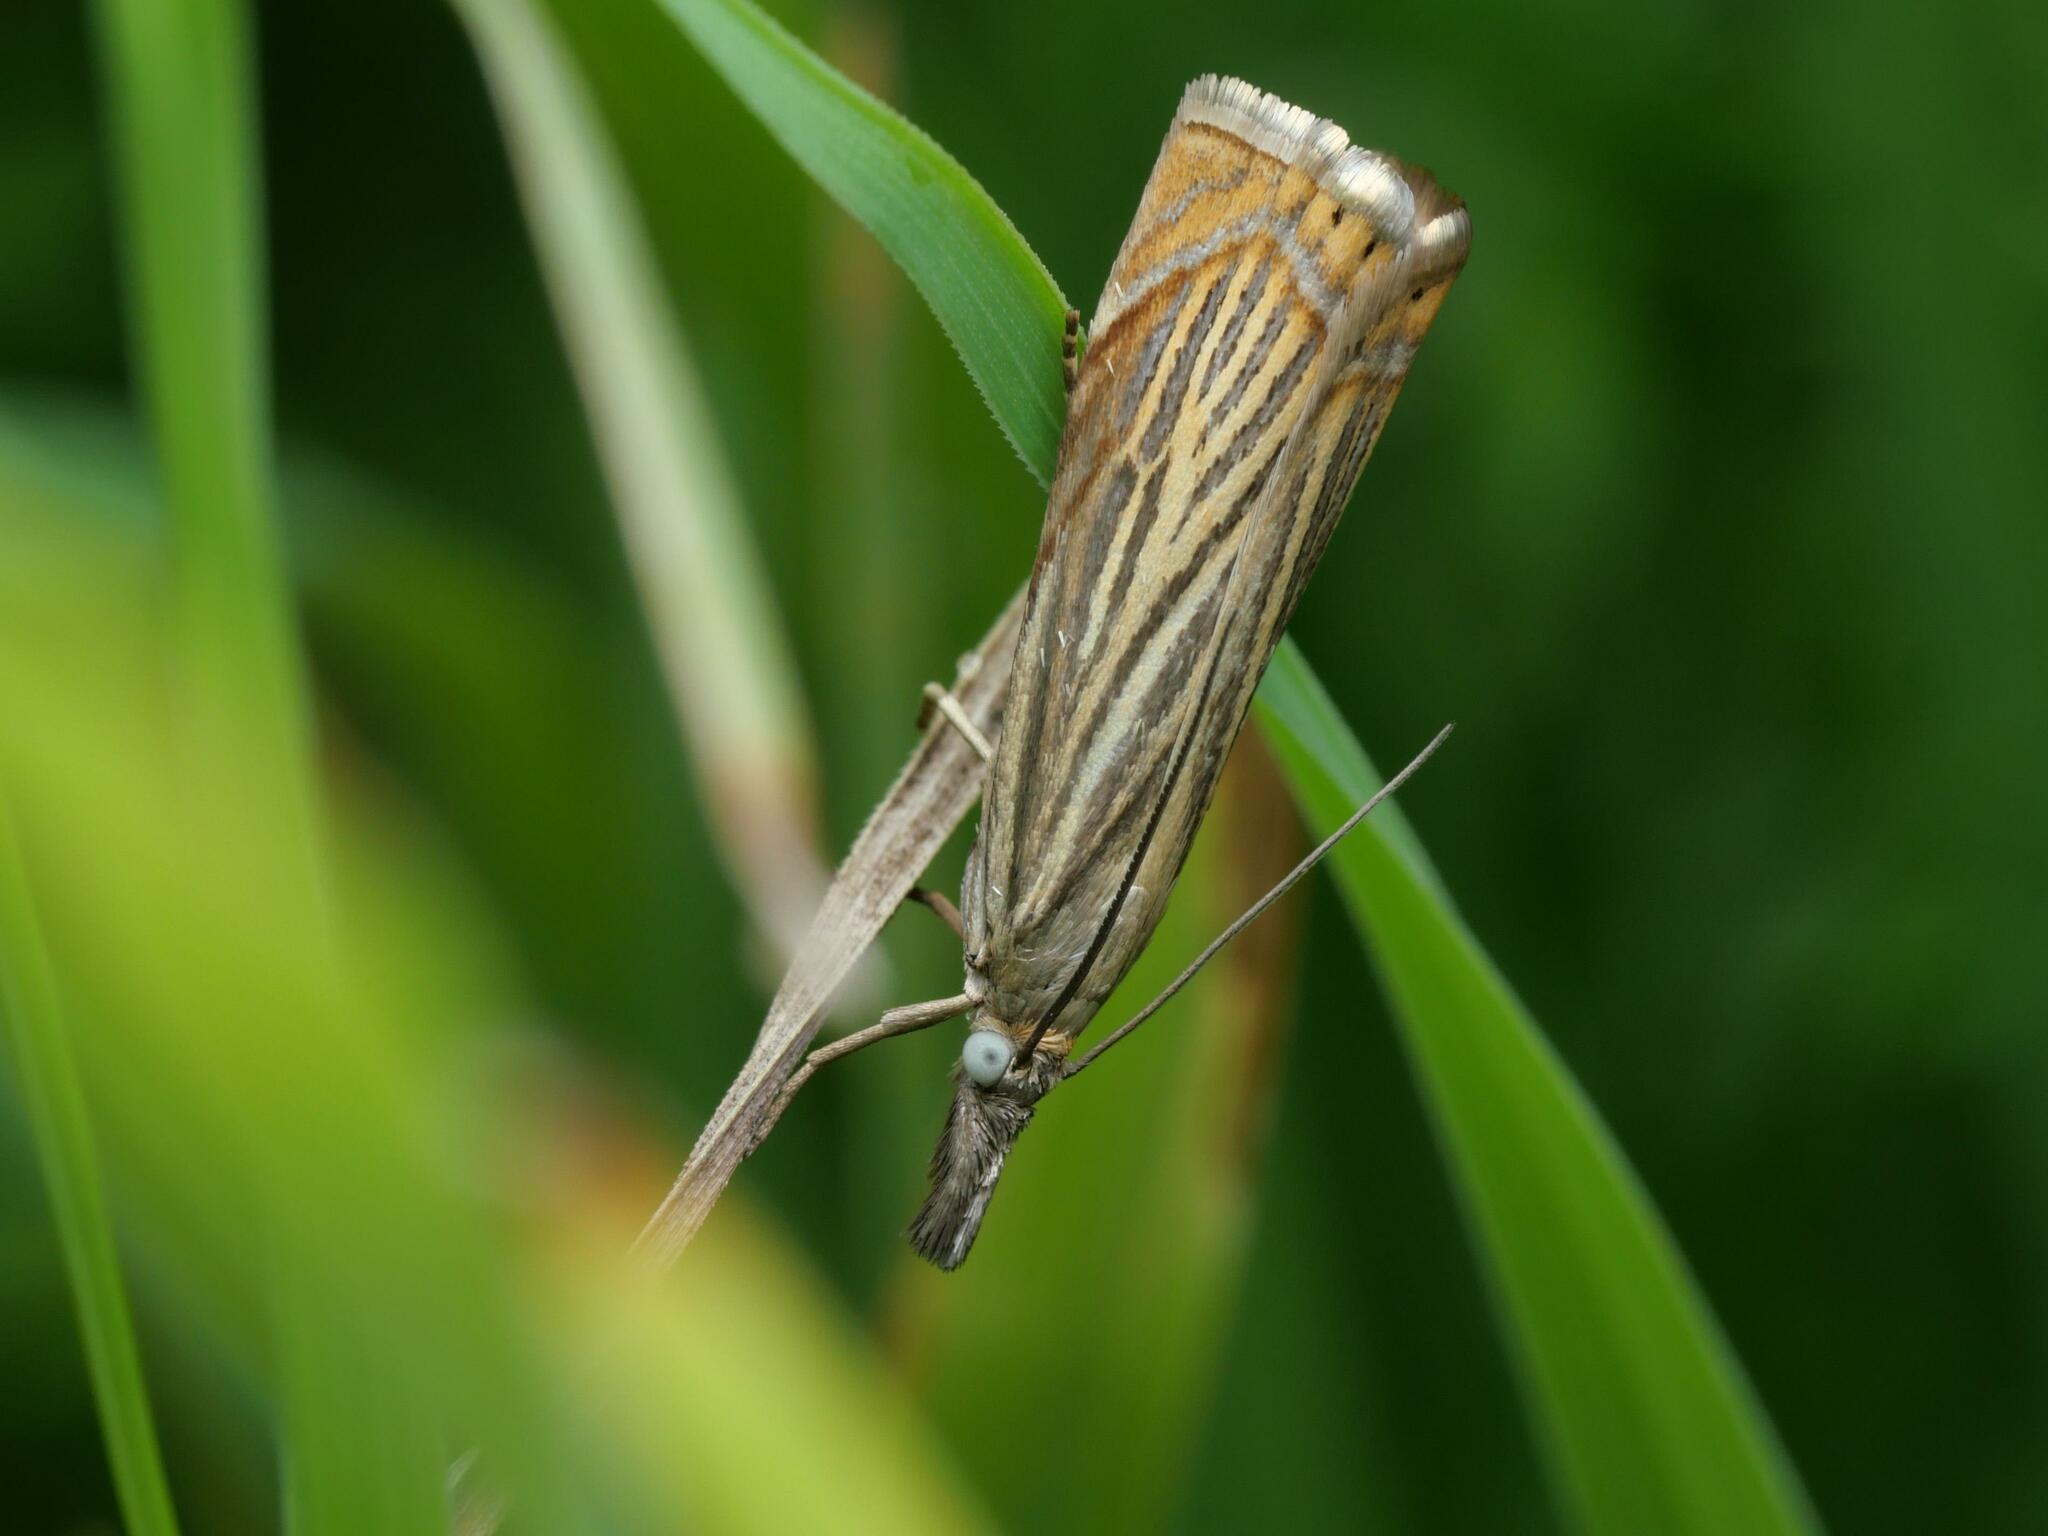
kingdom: Animalia
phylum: Arthropoda
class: Insecta
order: Lepidoptera
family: Crambidae
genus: Chrysoteuchia
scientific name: Chrysoteuchia culmella
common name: Garden grass-veneer
